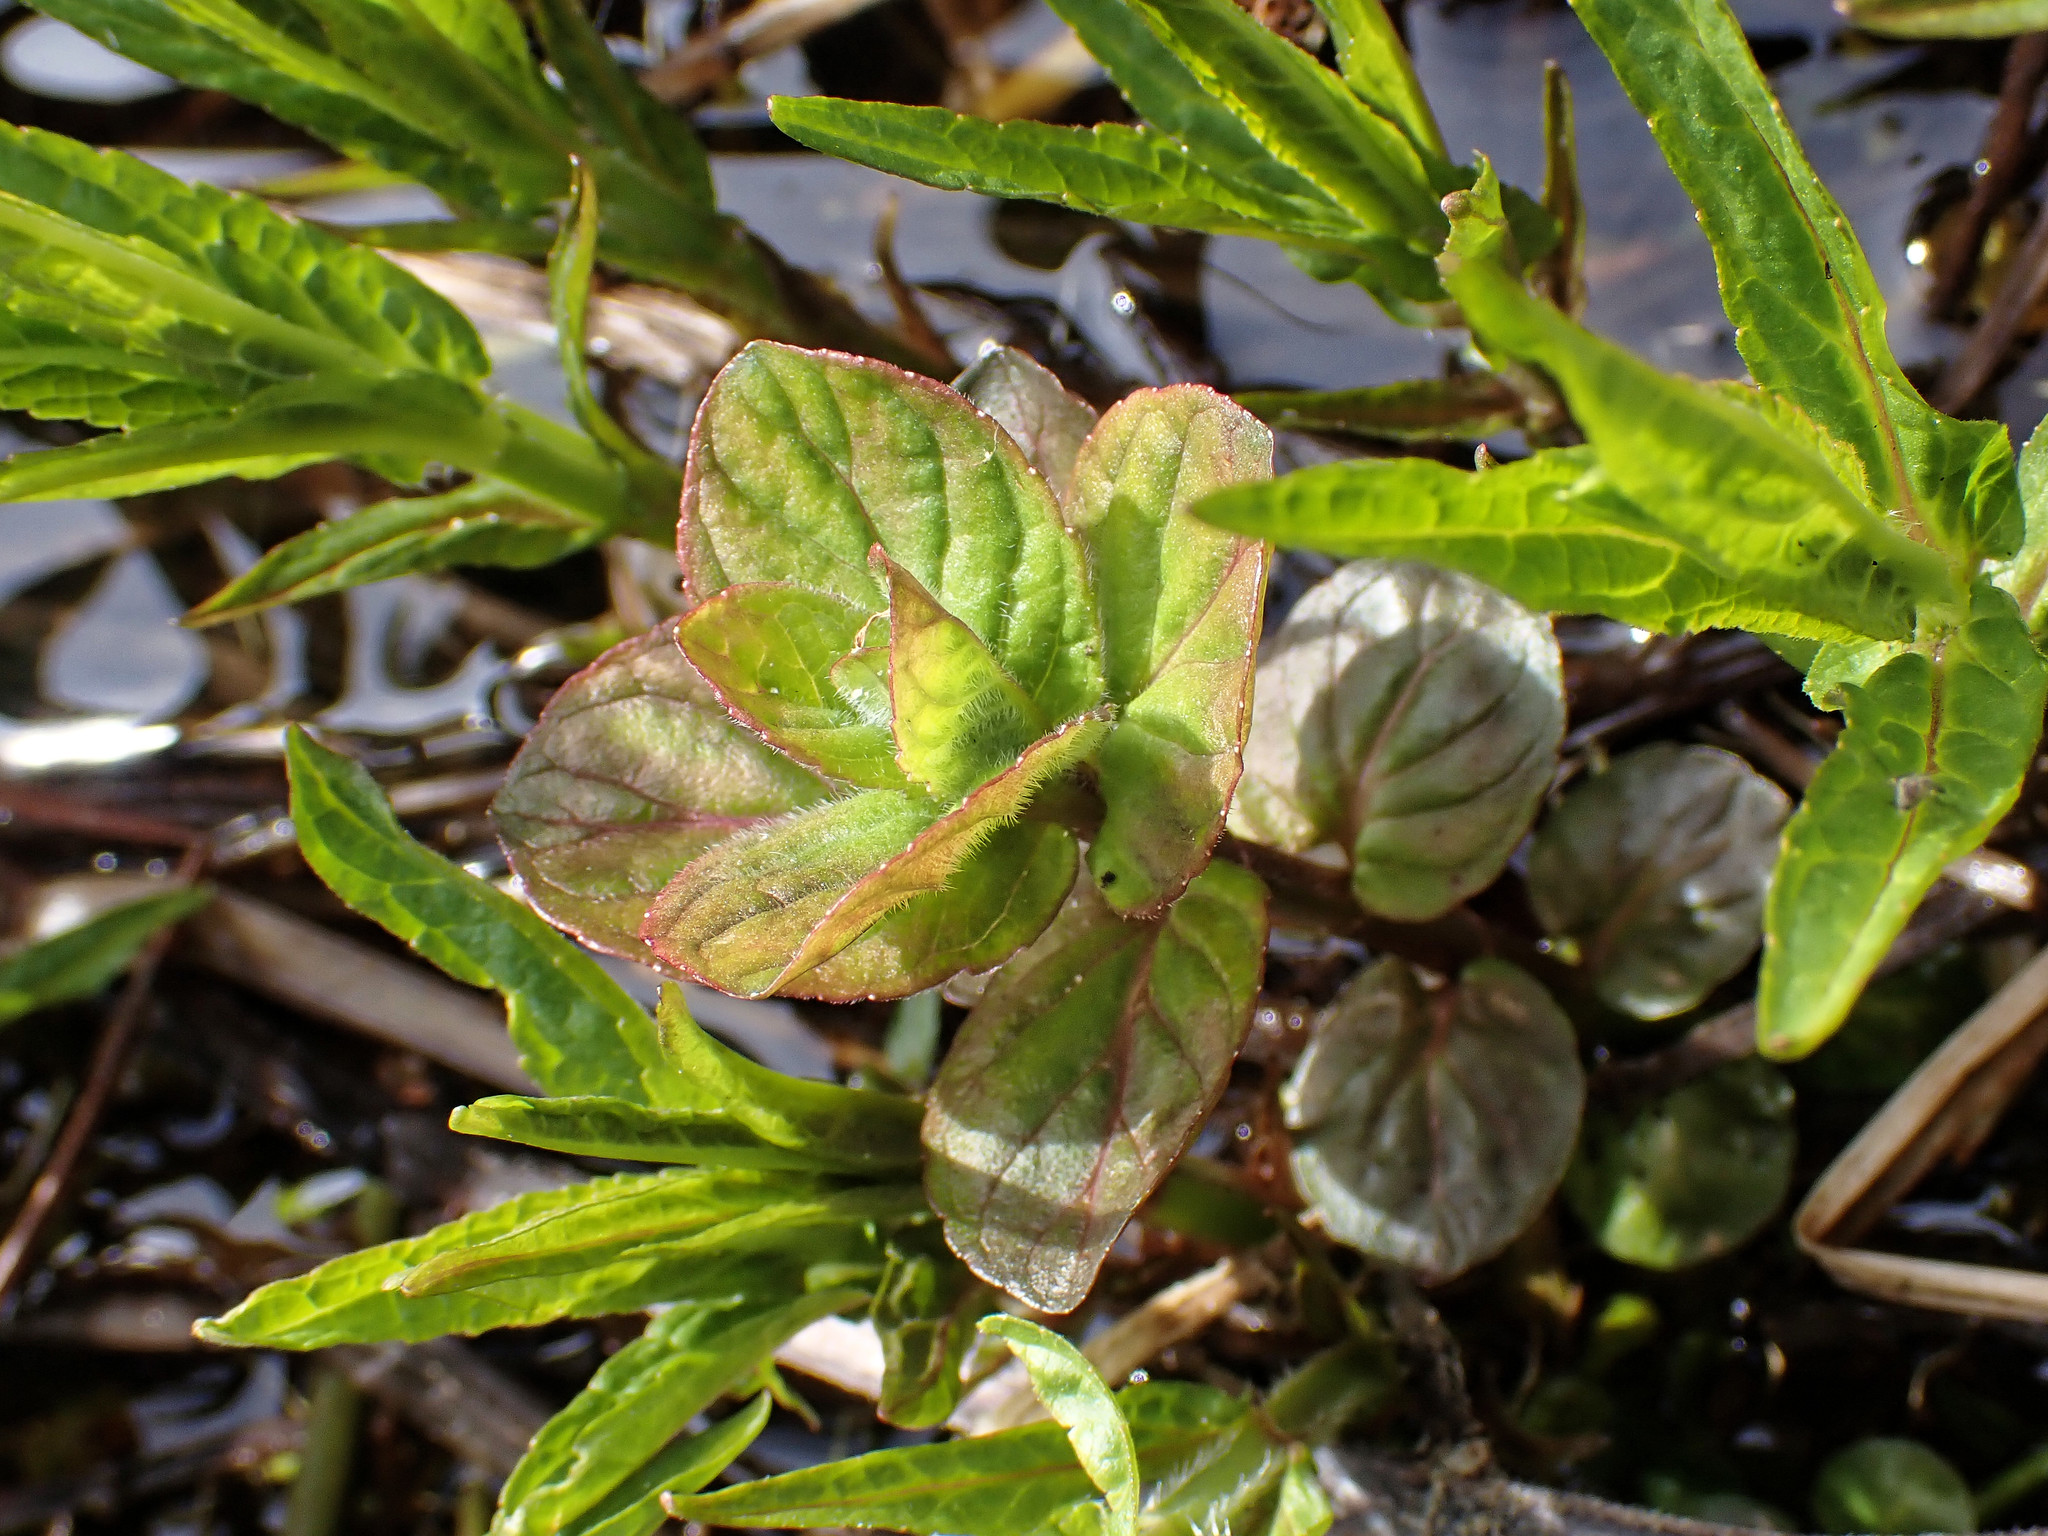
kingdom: Plantae
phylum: Tracheophyta
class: Magnoliopsida
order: Lamiales
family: Lamiaceae
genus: Mentha
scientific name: Mentha aquatica
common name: Water mint
